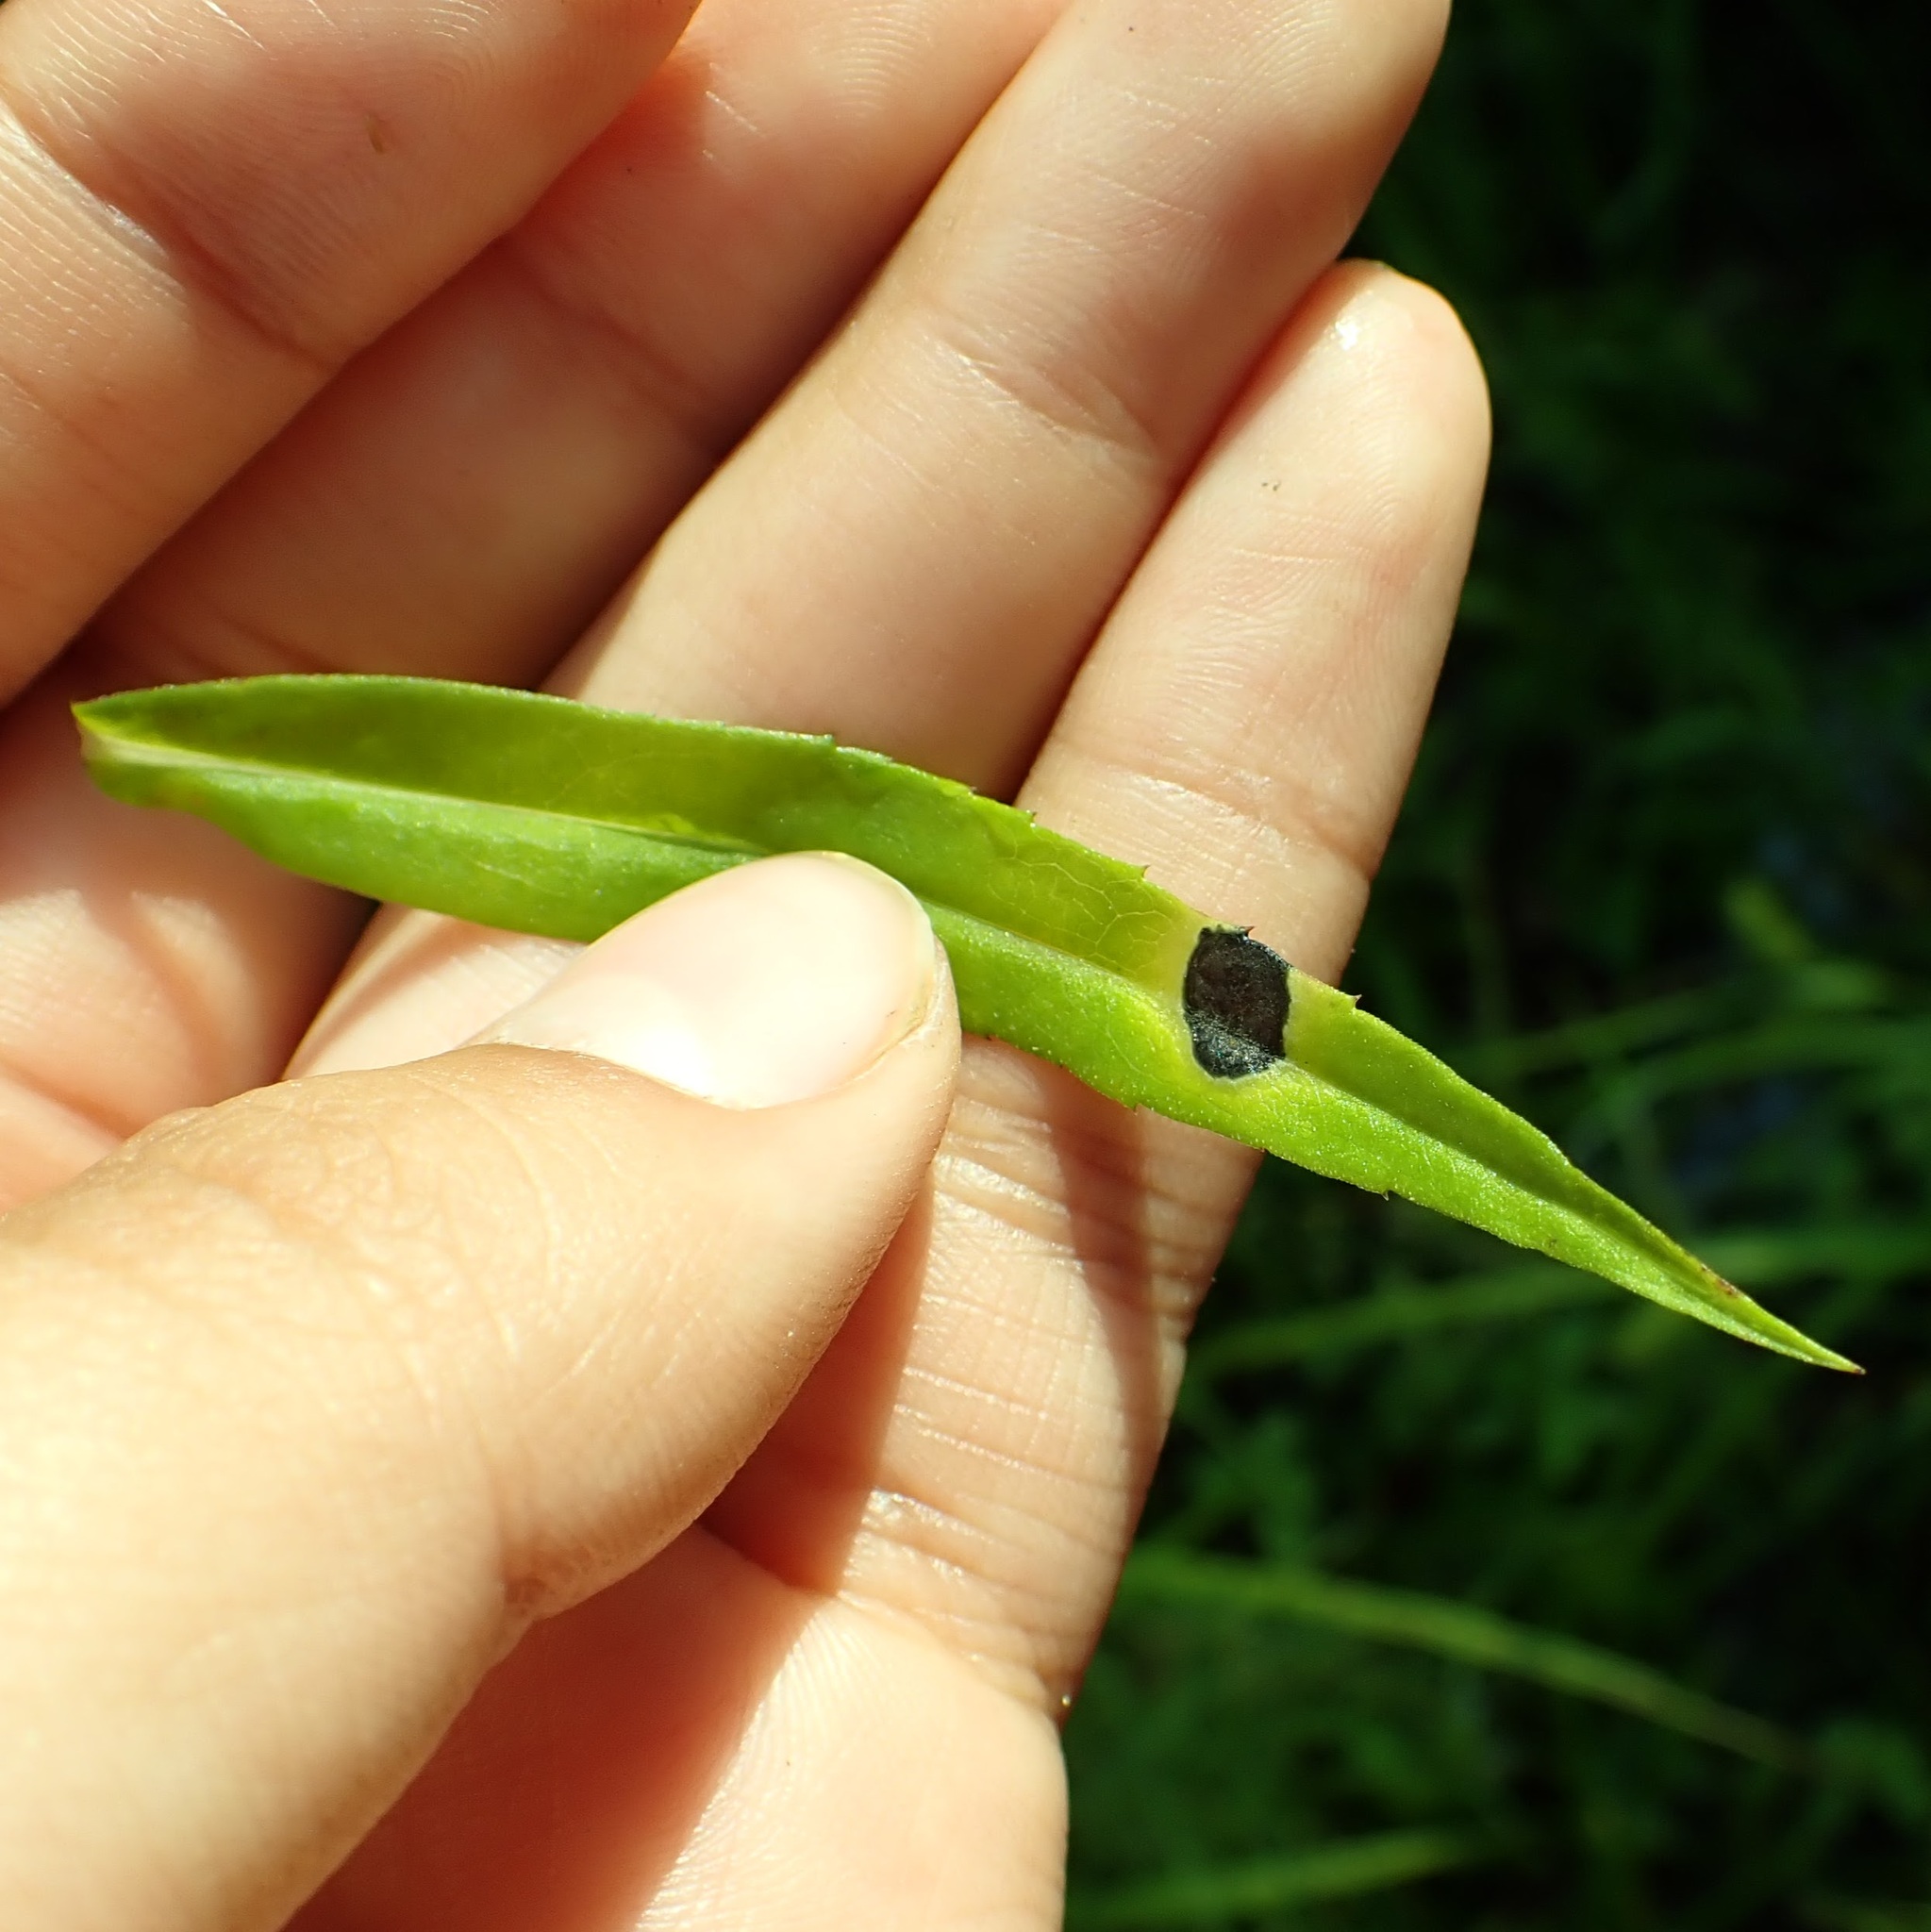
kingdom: Animalia
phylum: Arthropoda
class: Insecta
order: Diptera
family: Cecidomyiidae
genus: Asteromyia
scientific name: Asteromyia carbonifera
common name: Carbonifera goldenrod gall midge
